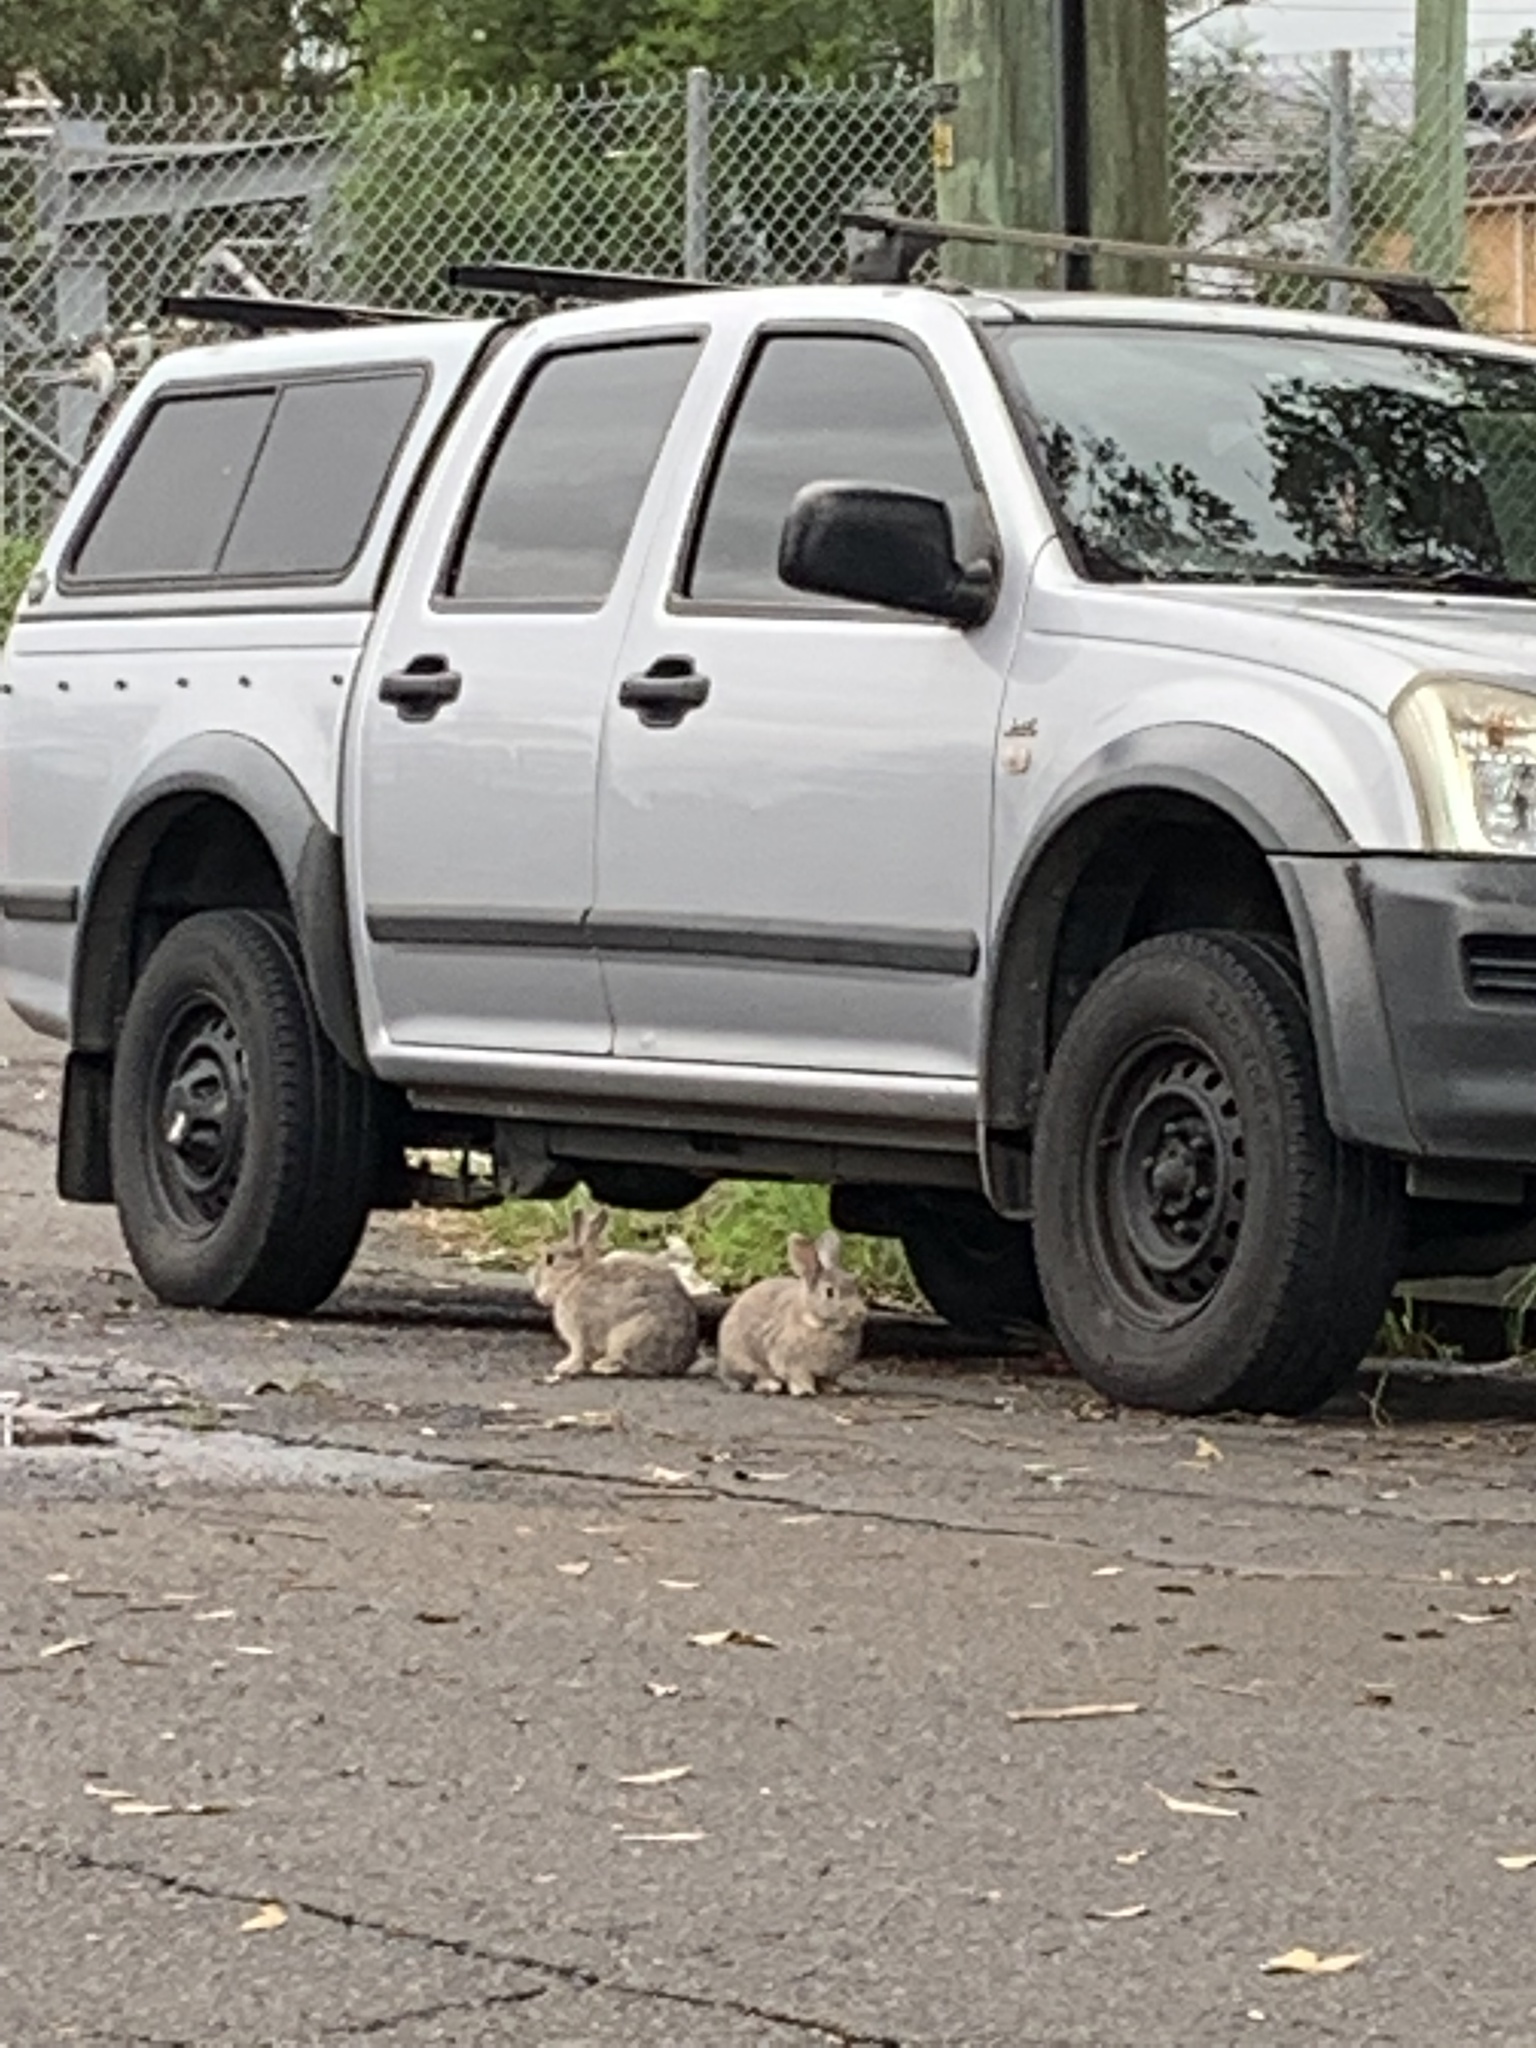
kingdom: Animalia
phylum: Chordata
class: Mammalia
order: Lagomorpha
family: Leporidae
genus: Oryctolagus
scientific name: Oryctolagus cuniculus
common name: European rabbit
